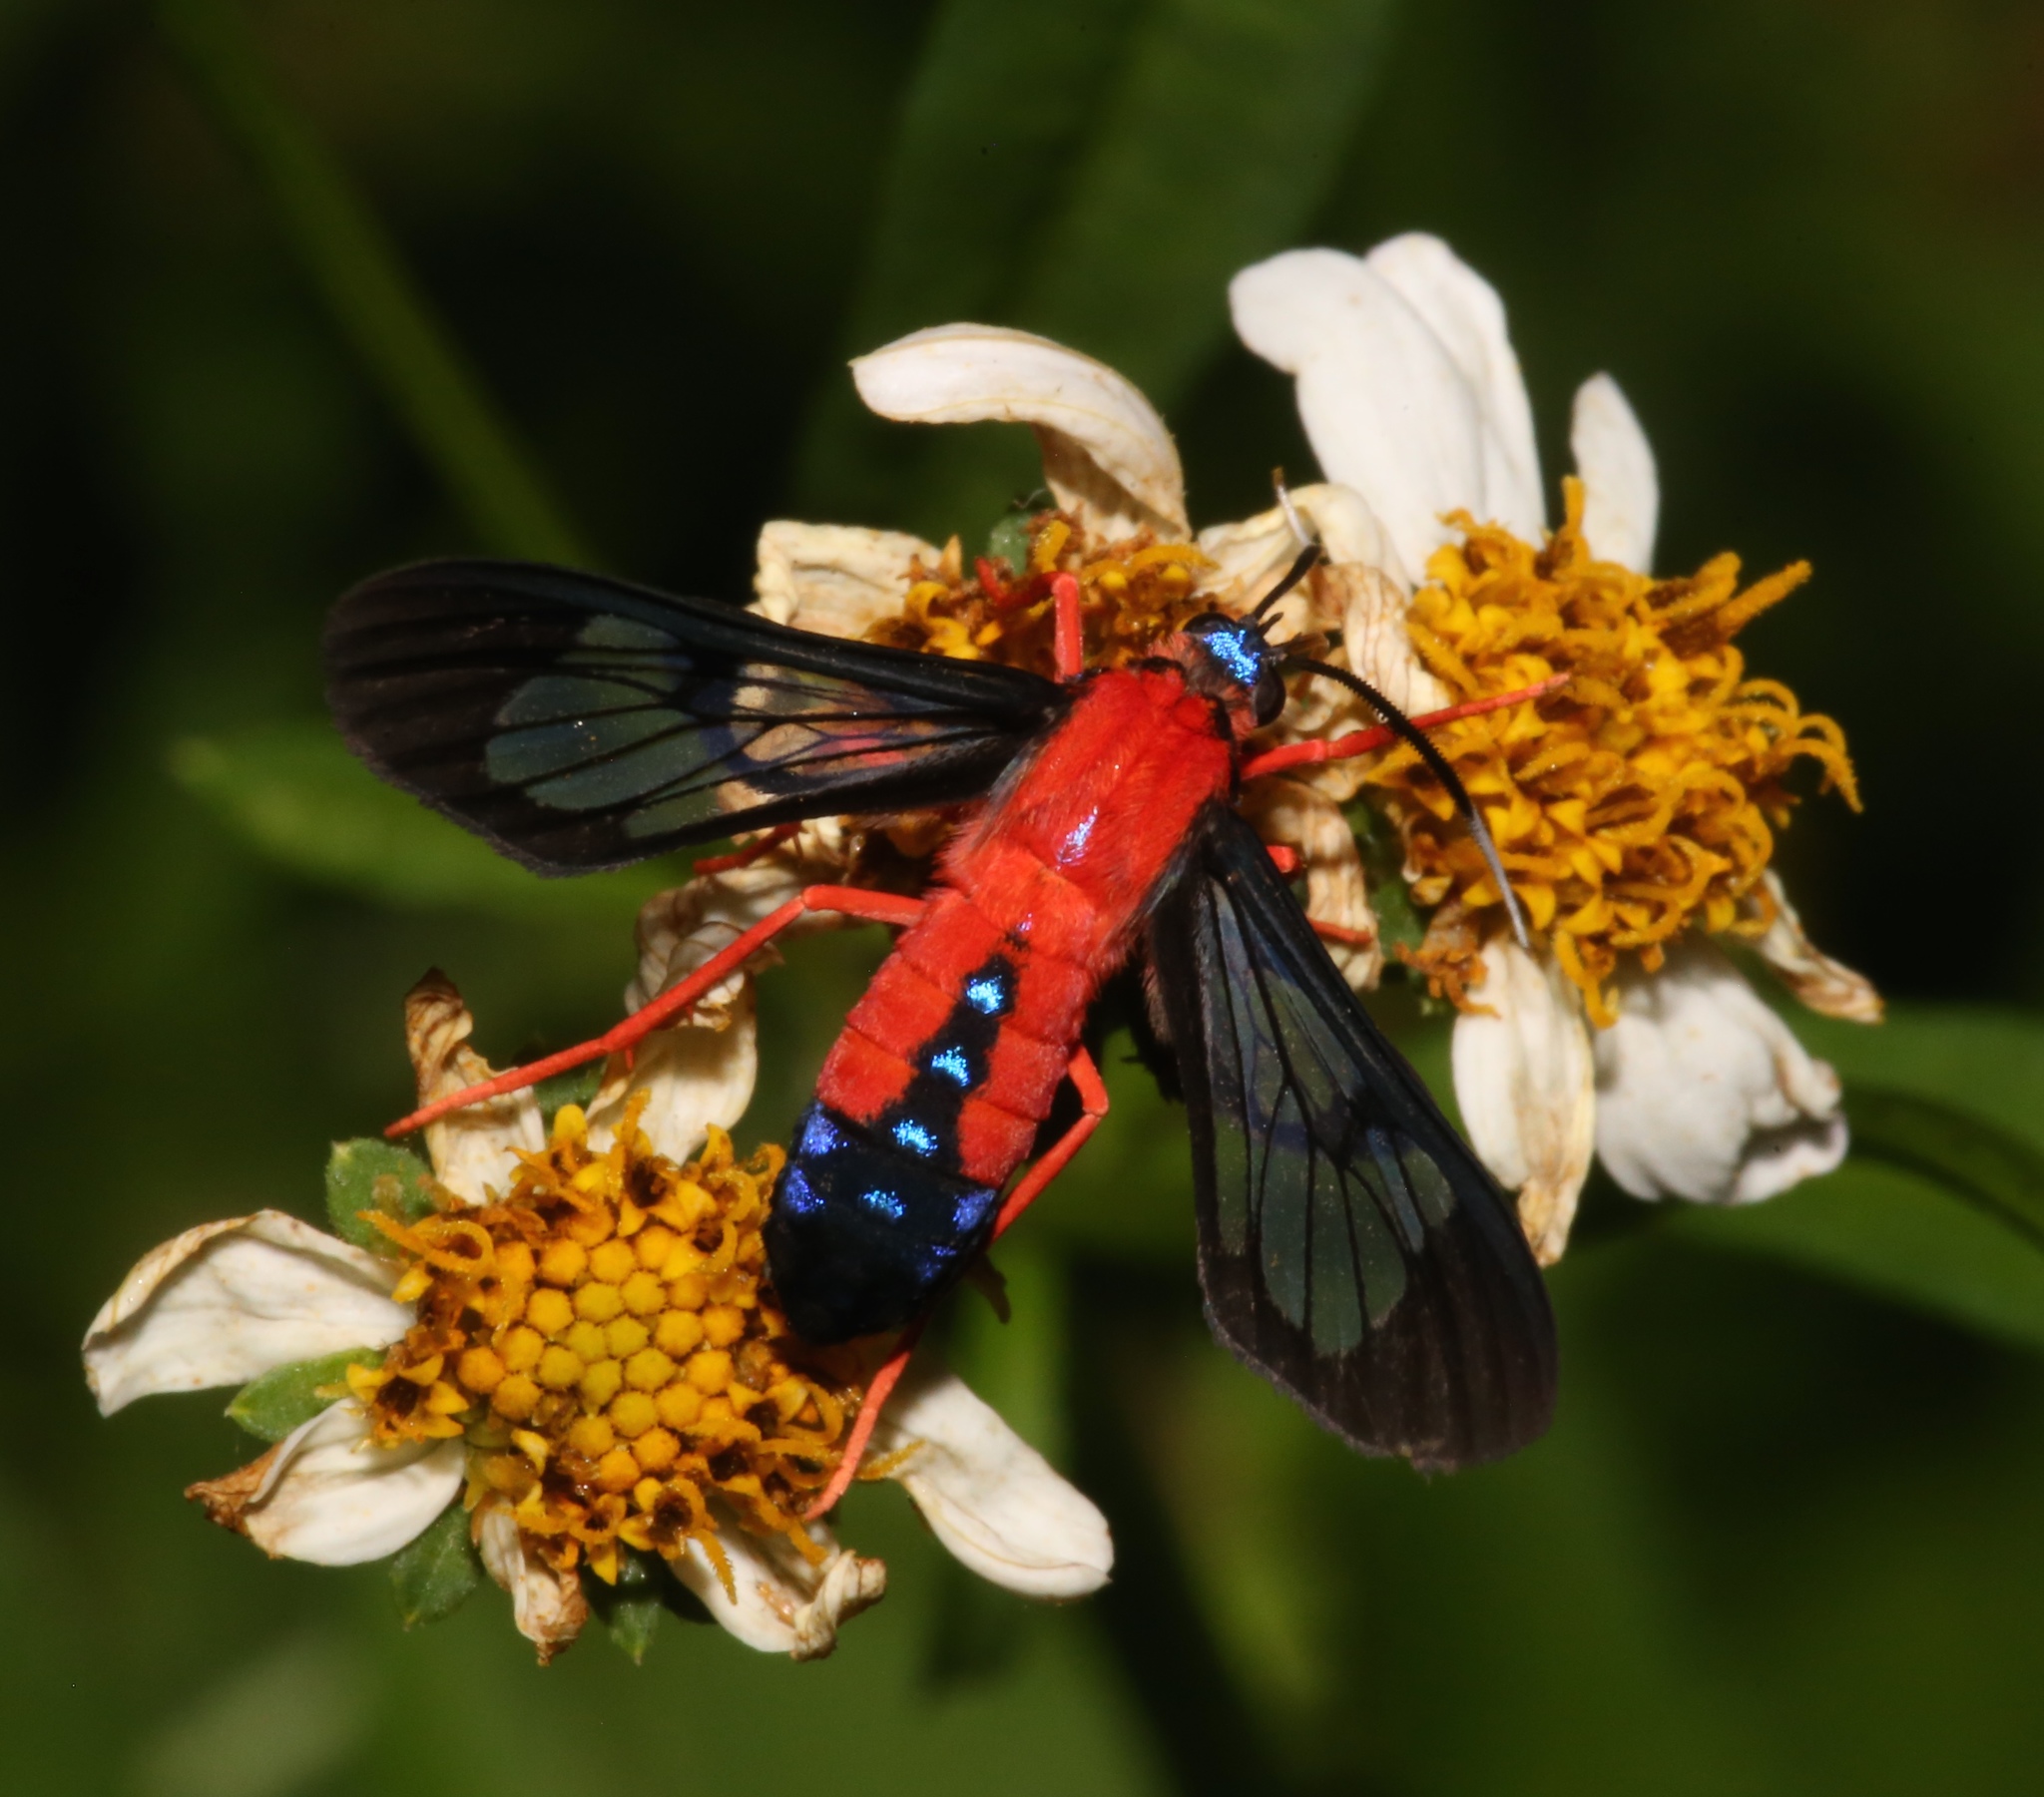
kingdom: Animalia
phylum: Arthropoda
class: Insecta
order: Lepidoptera
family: Erebidae
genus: Cosmosoma
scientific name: Cosmosoma myrodora
